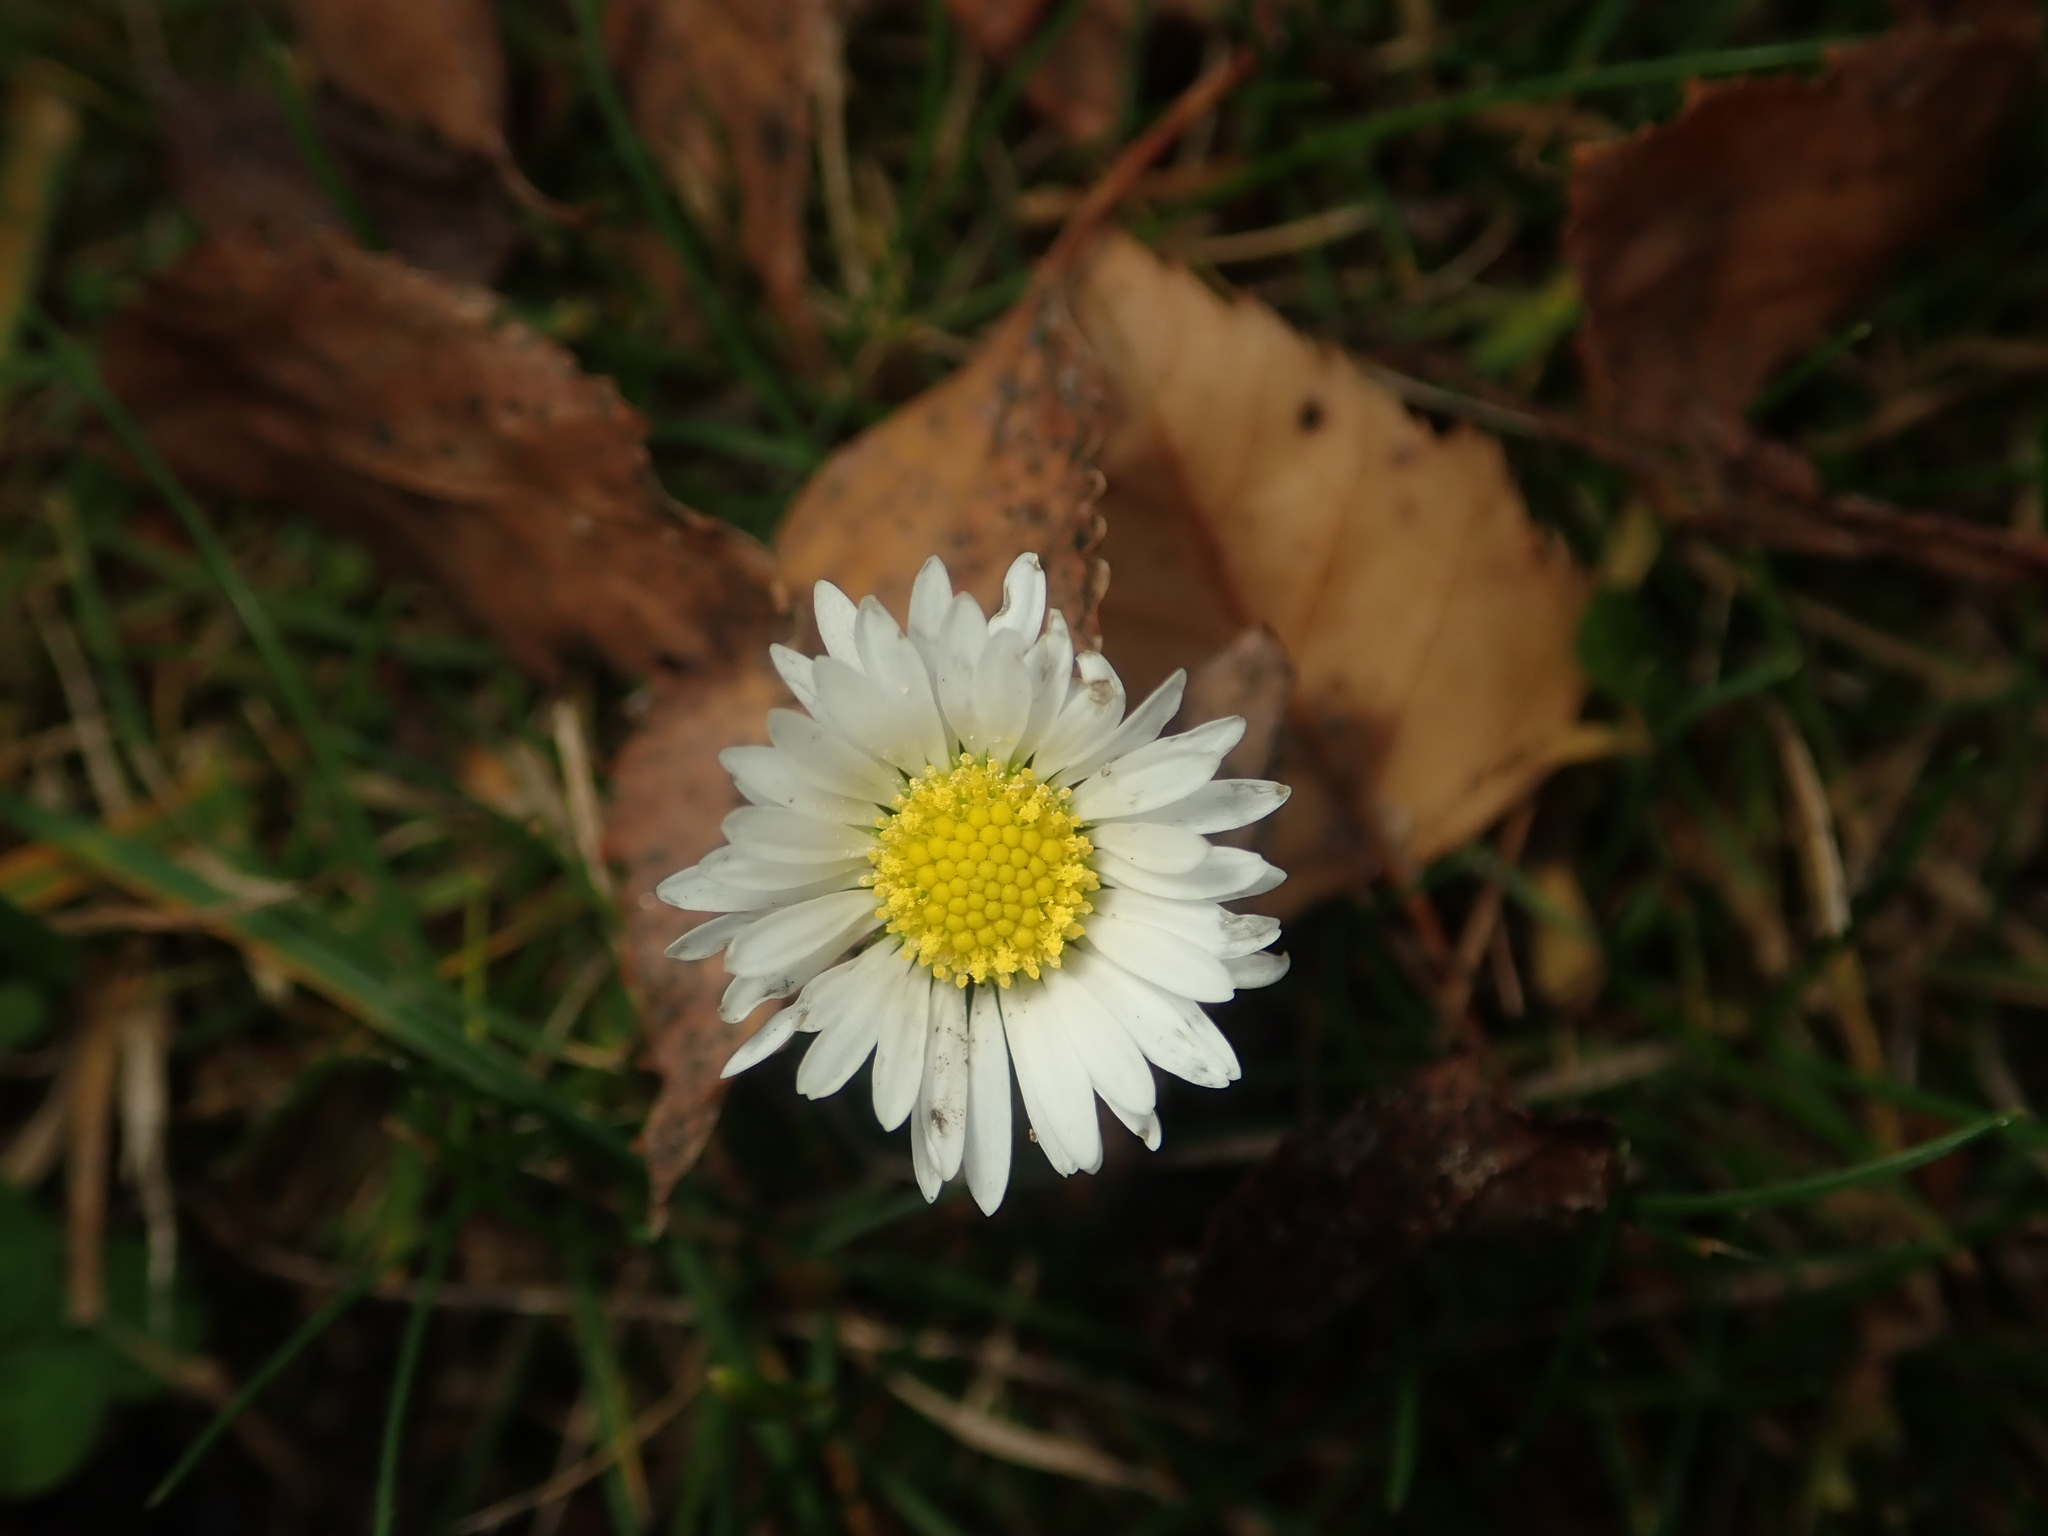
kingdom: Plantae
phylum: Tracheophyta
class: Magnoliopsida
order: Asterales
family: Asteraceae
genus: Bellis
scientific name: Bellis perennis
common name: Lawndaisy
